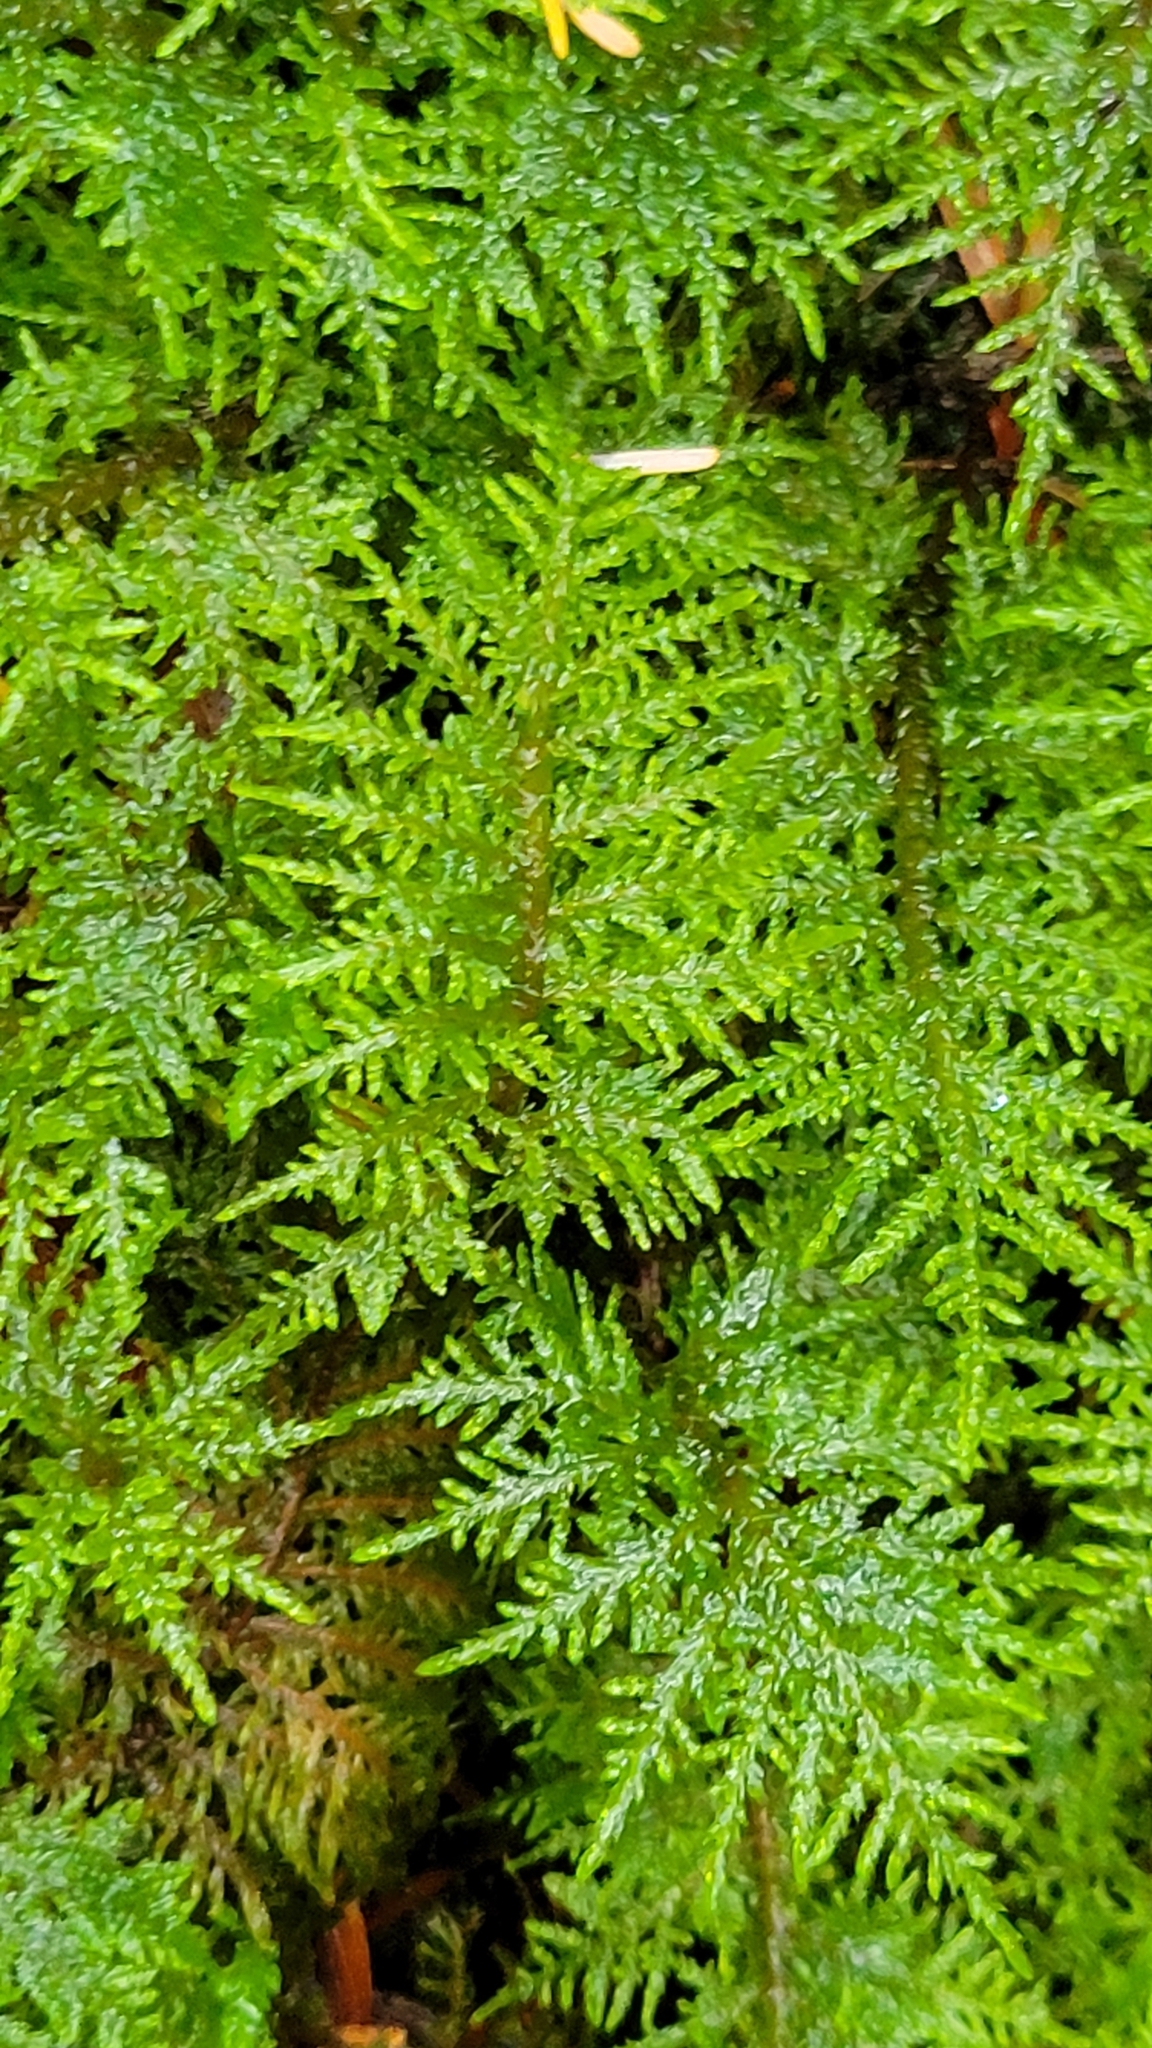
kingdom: Plantae
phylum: Bryophyta
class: Bryopsida
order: Hypnales
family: Hylocomiaceae
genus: Hylocomium
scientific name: Hylocomium splendens
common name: Stairstep moss
